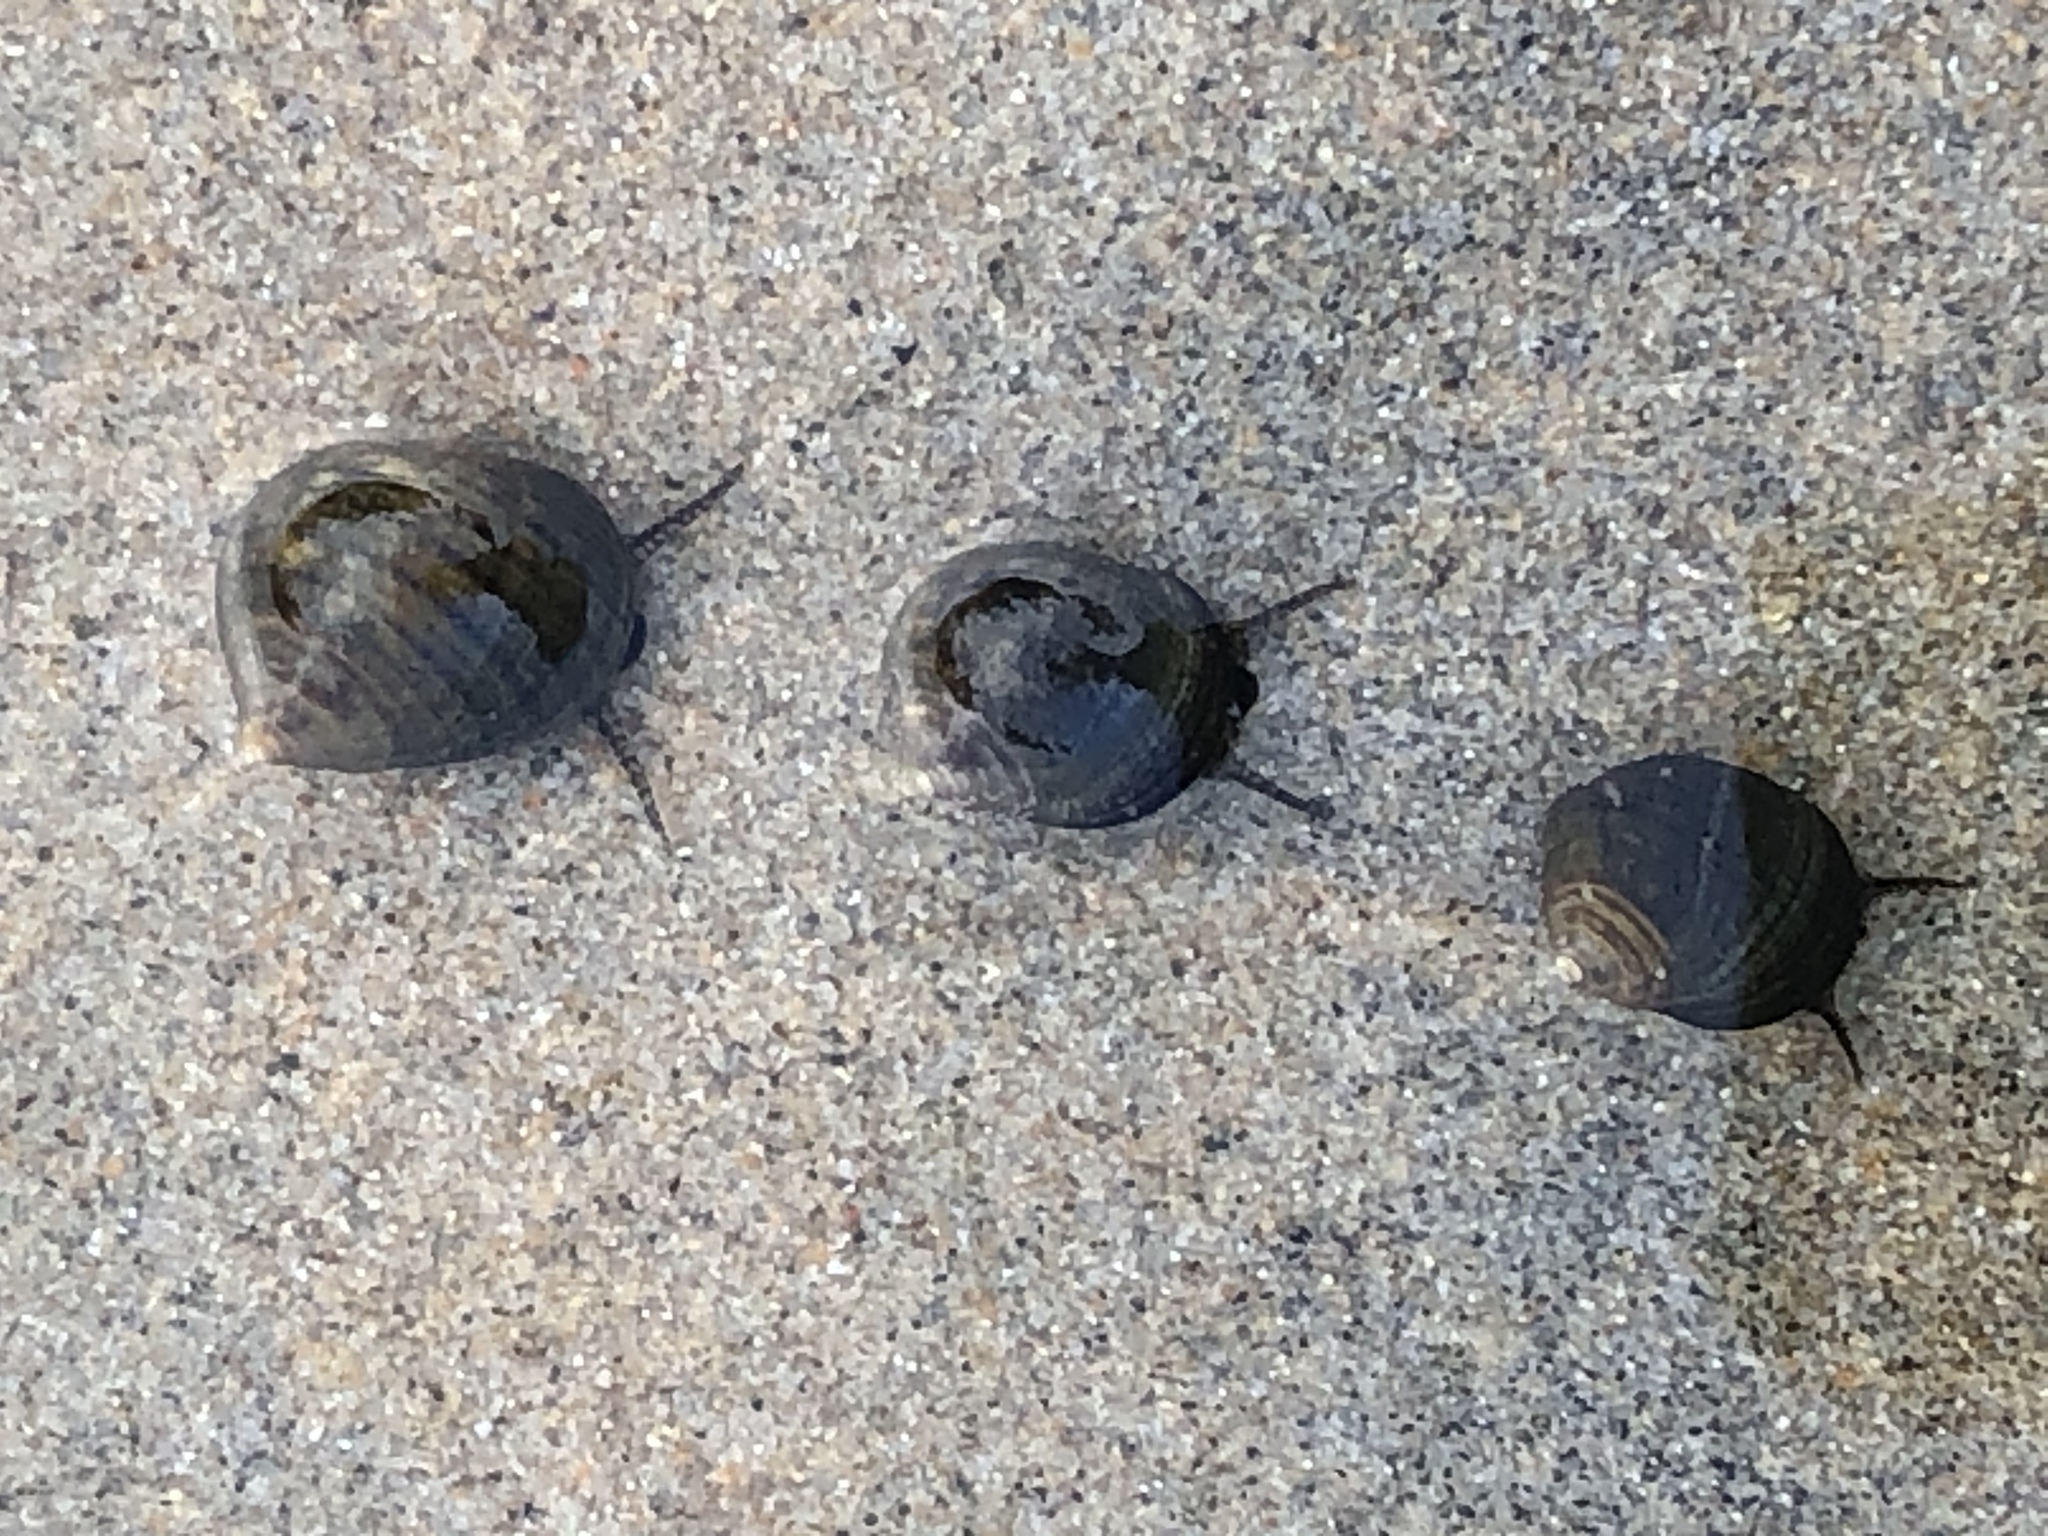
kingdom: Animalia
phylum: Mollusca
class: Gastropoda
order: Littorinimorpha
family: Littorinidae
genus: Littorina
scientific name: Littorina littorea
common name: Common periwinkle
